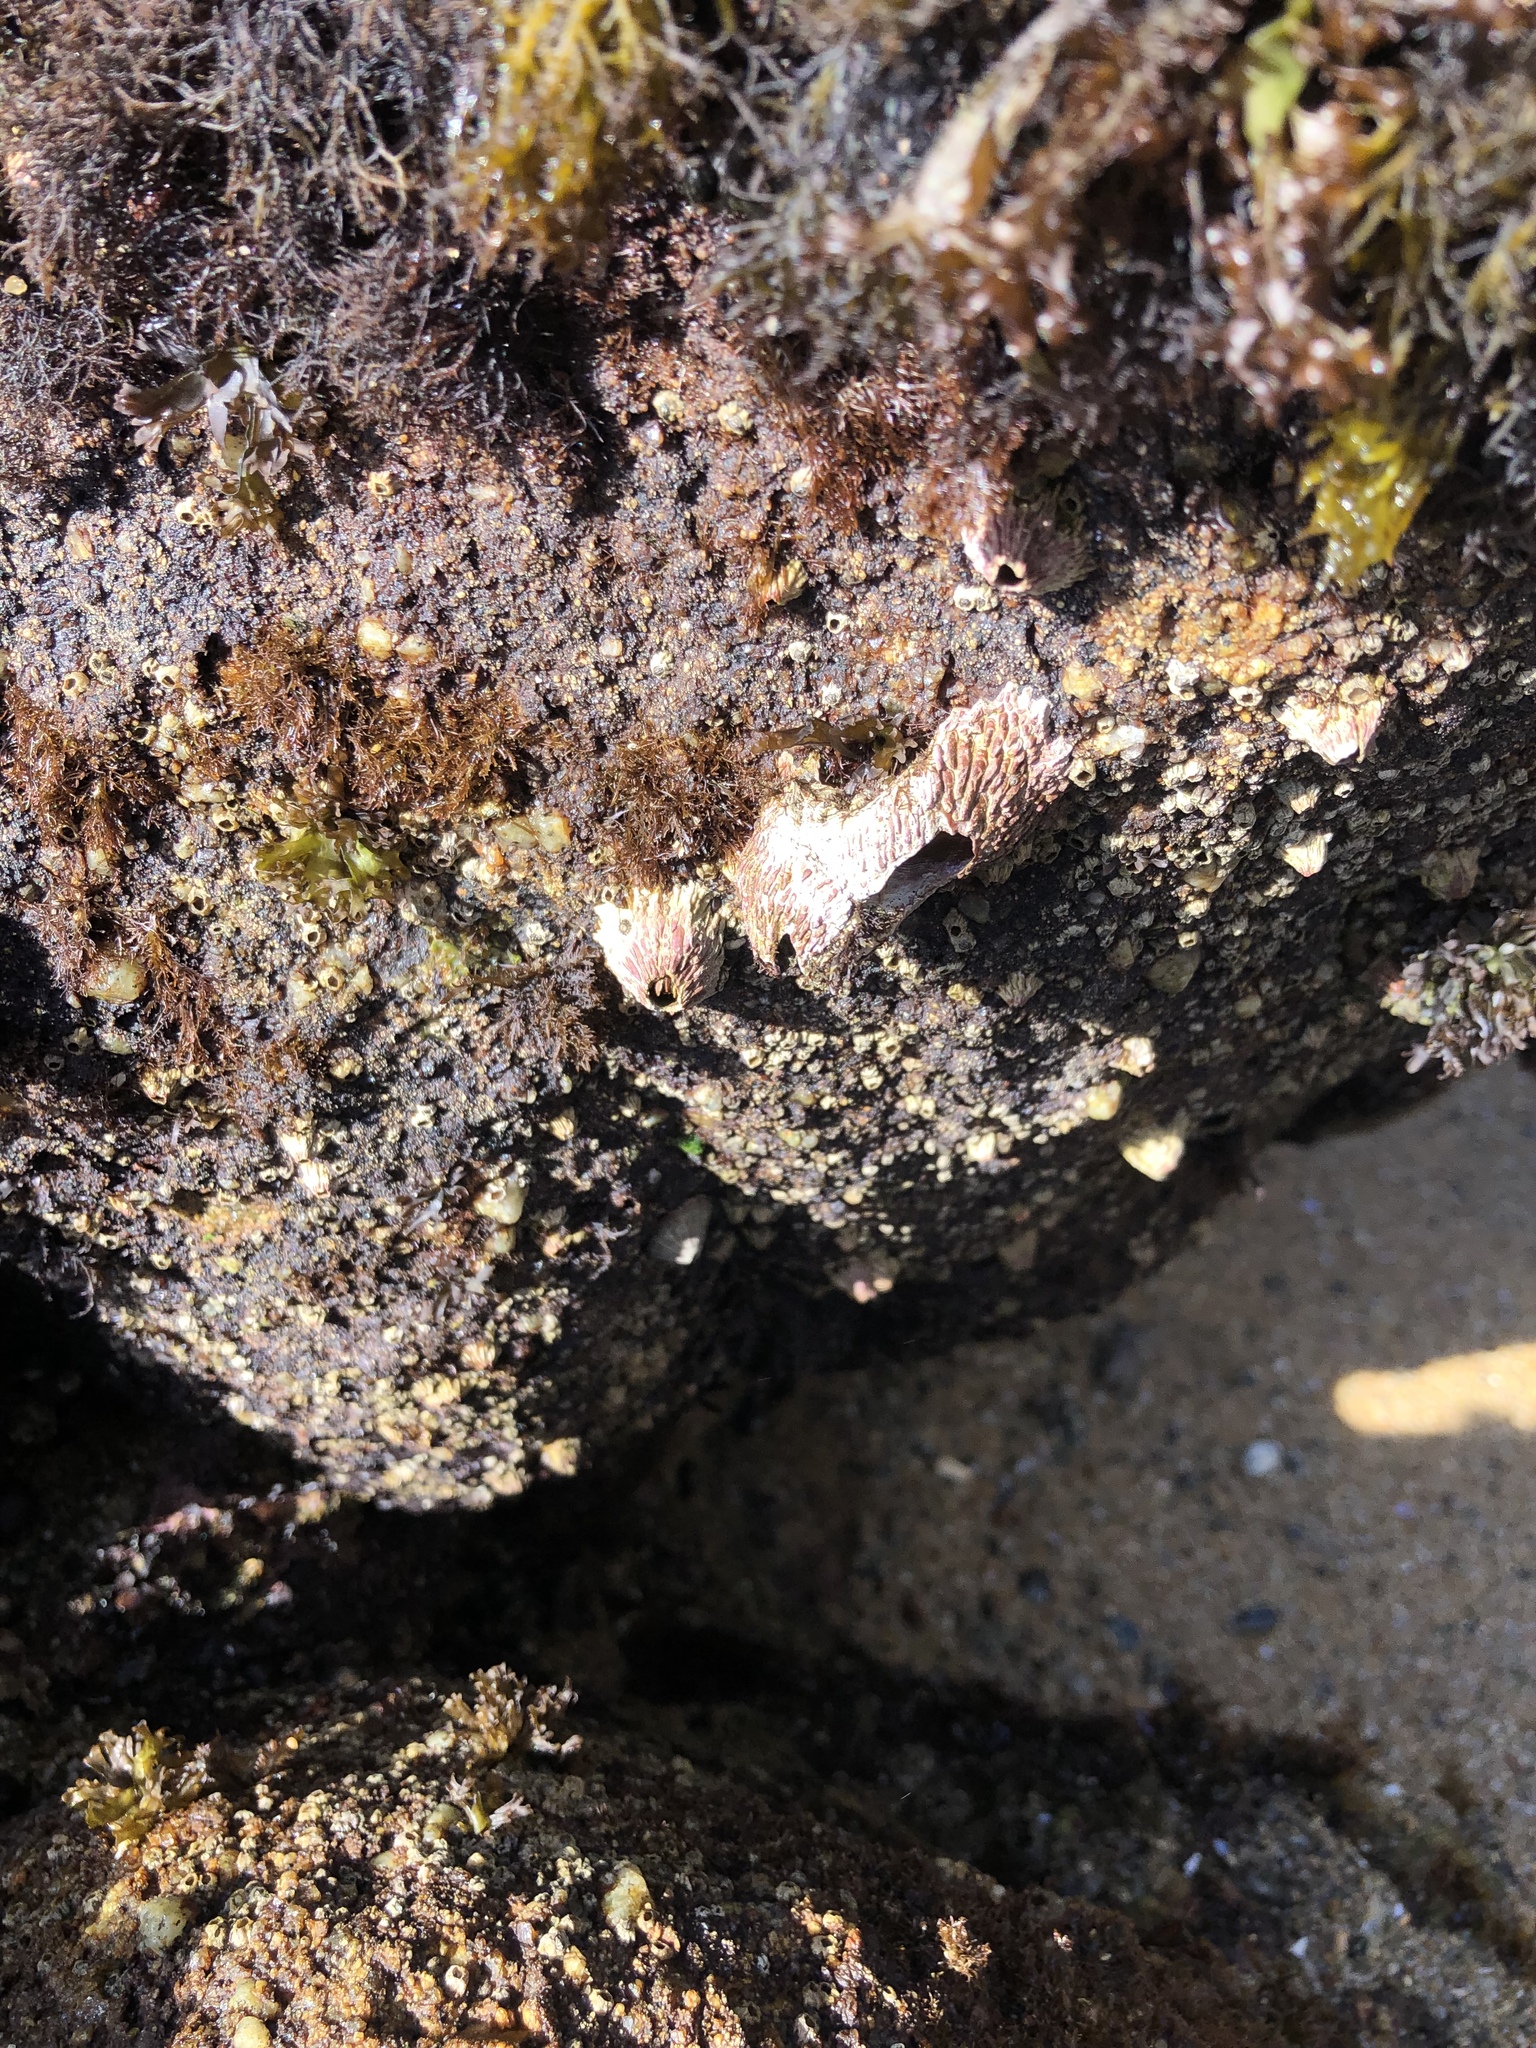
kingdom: Animalia
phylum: Arthropoda
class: Maxillopoda
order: Sessilia
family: Tetraclitidae
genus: Tetraclita
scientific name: Tetraclita rubescens
